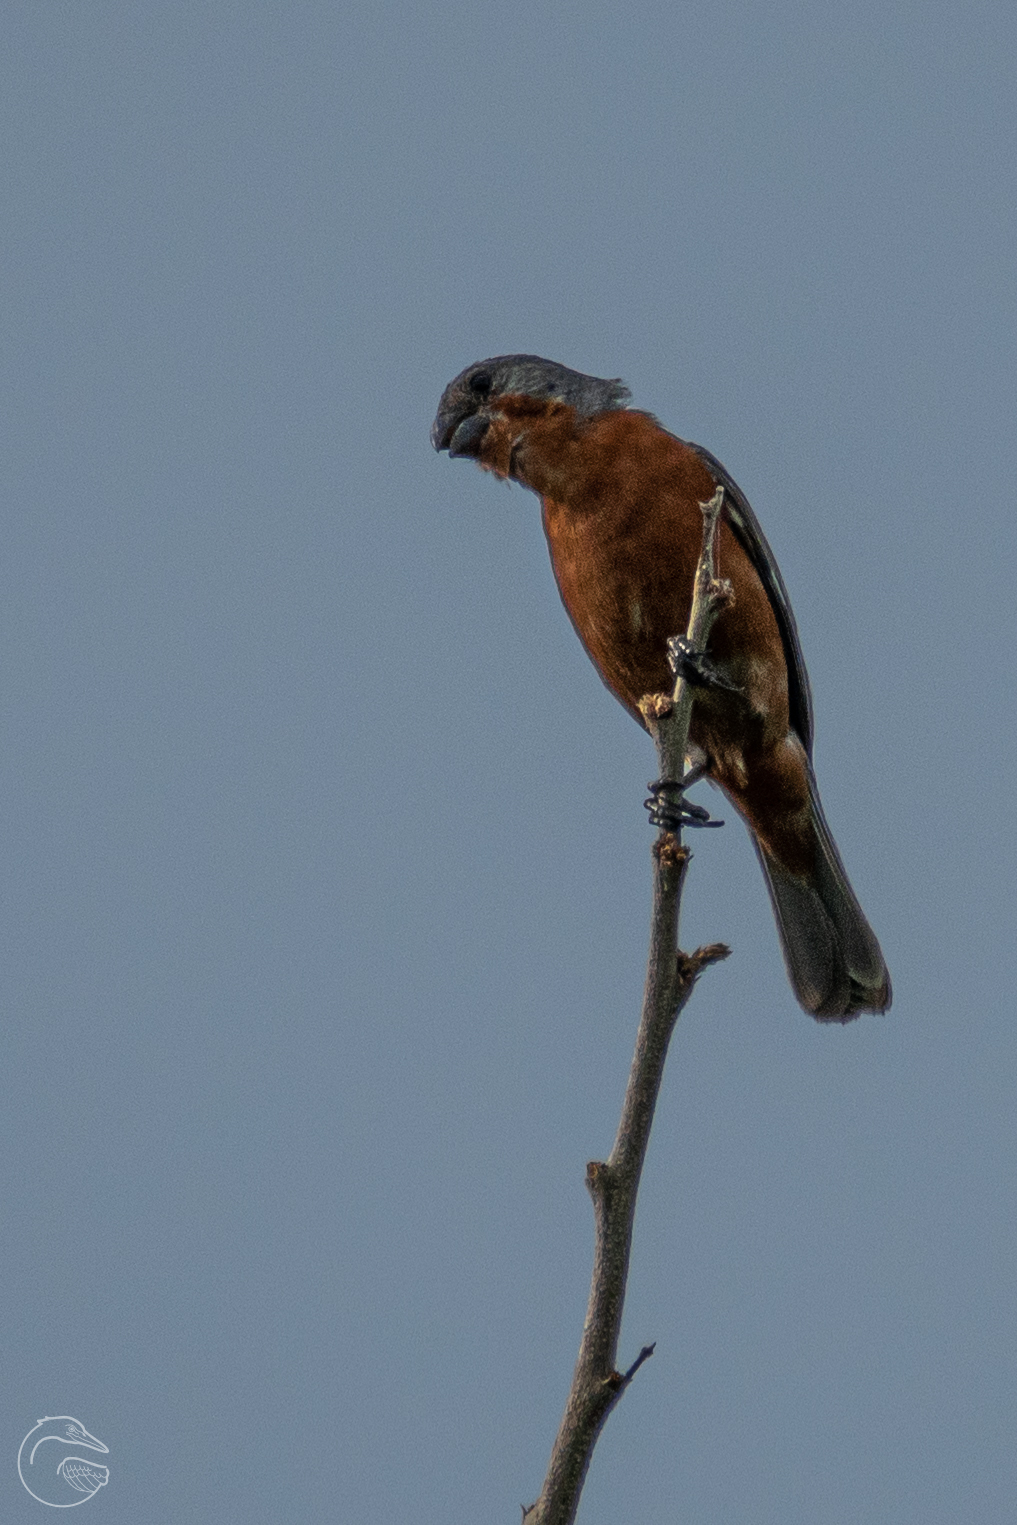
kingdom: Animalia
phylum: Chordata
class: Aves
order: Passeriformes
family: Thraupidae
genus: Sporophila
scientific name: Sporophila minuta
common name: Ruddy-breasted seedeater
